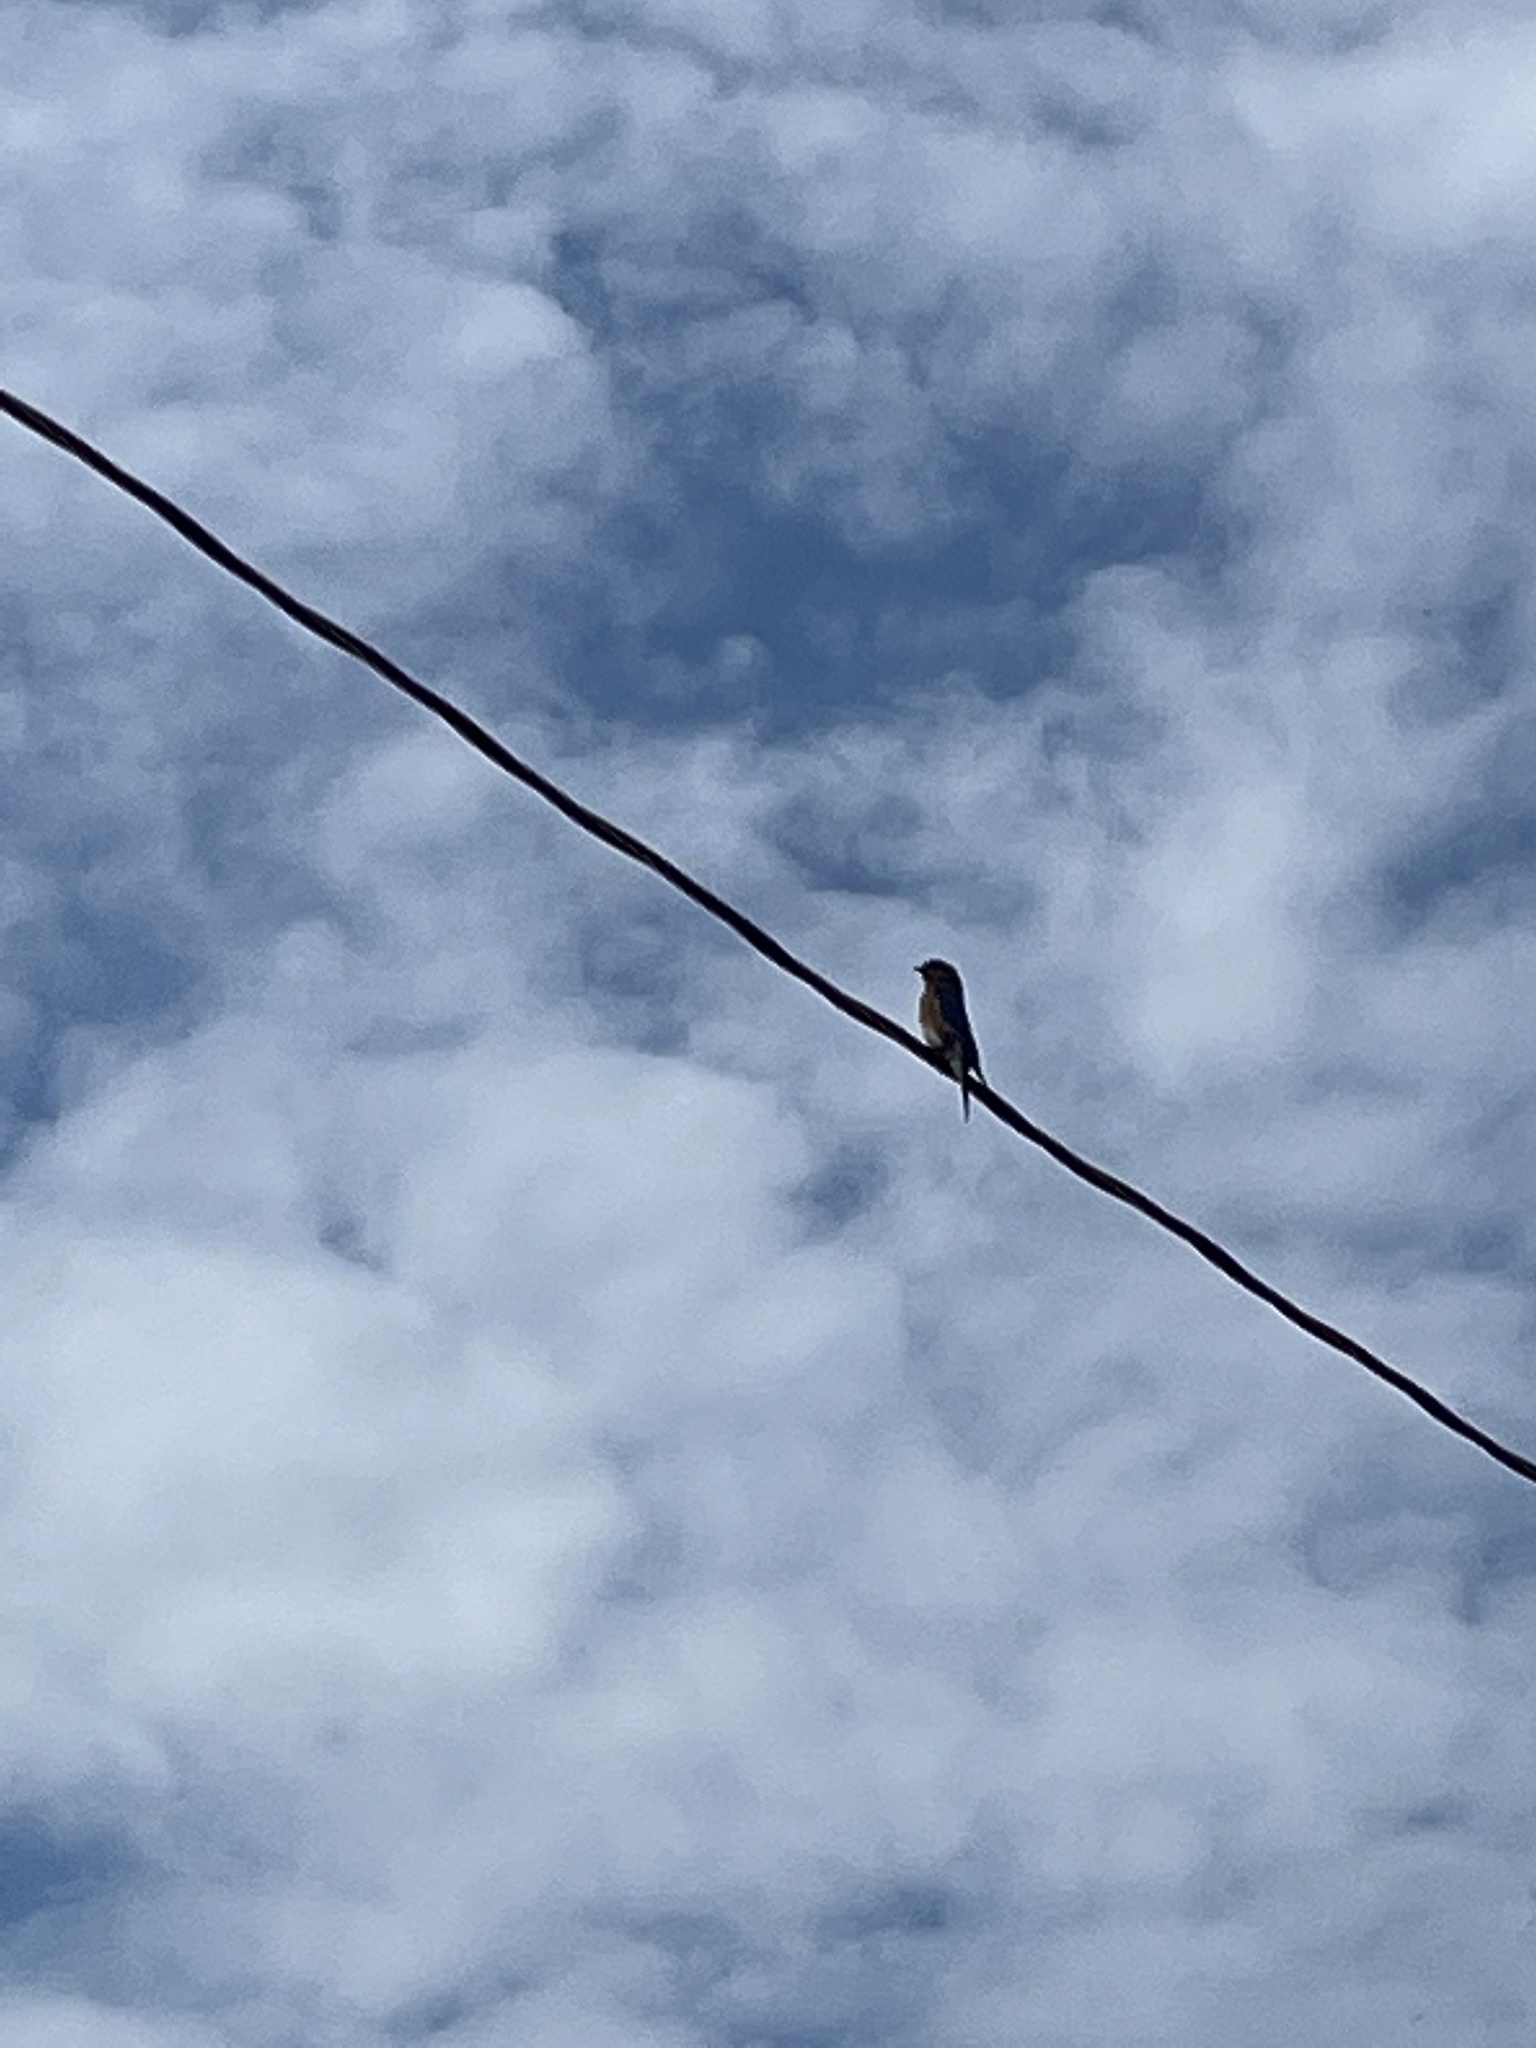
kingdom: Animalia
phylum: Chordata
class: Aves
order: Passeriformes
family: Turdidae
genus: Sialia
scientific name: Sialia sialis
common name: Eastern bluebird
